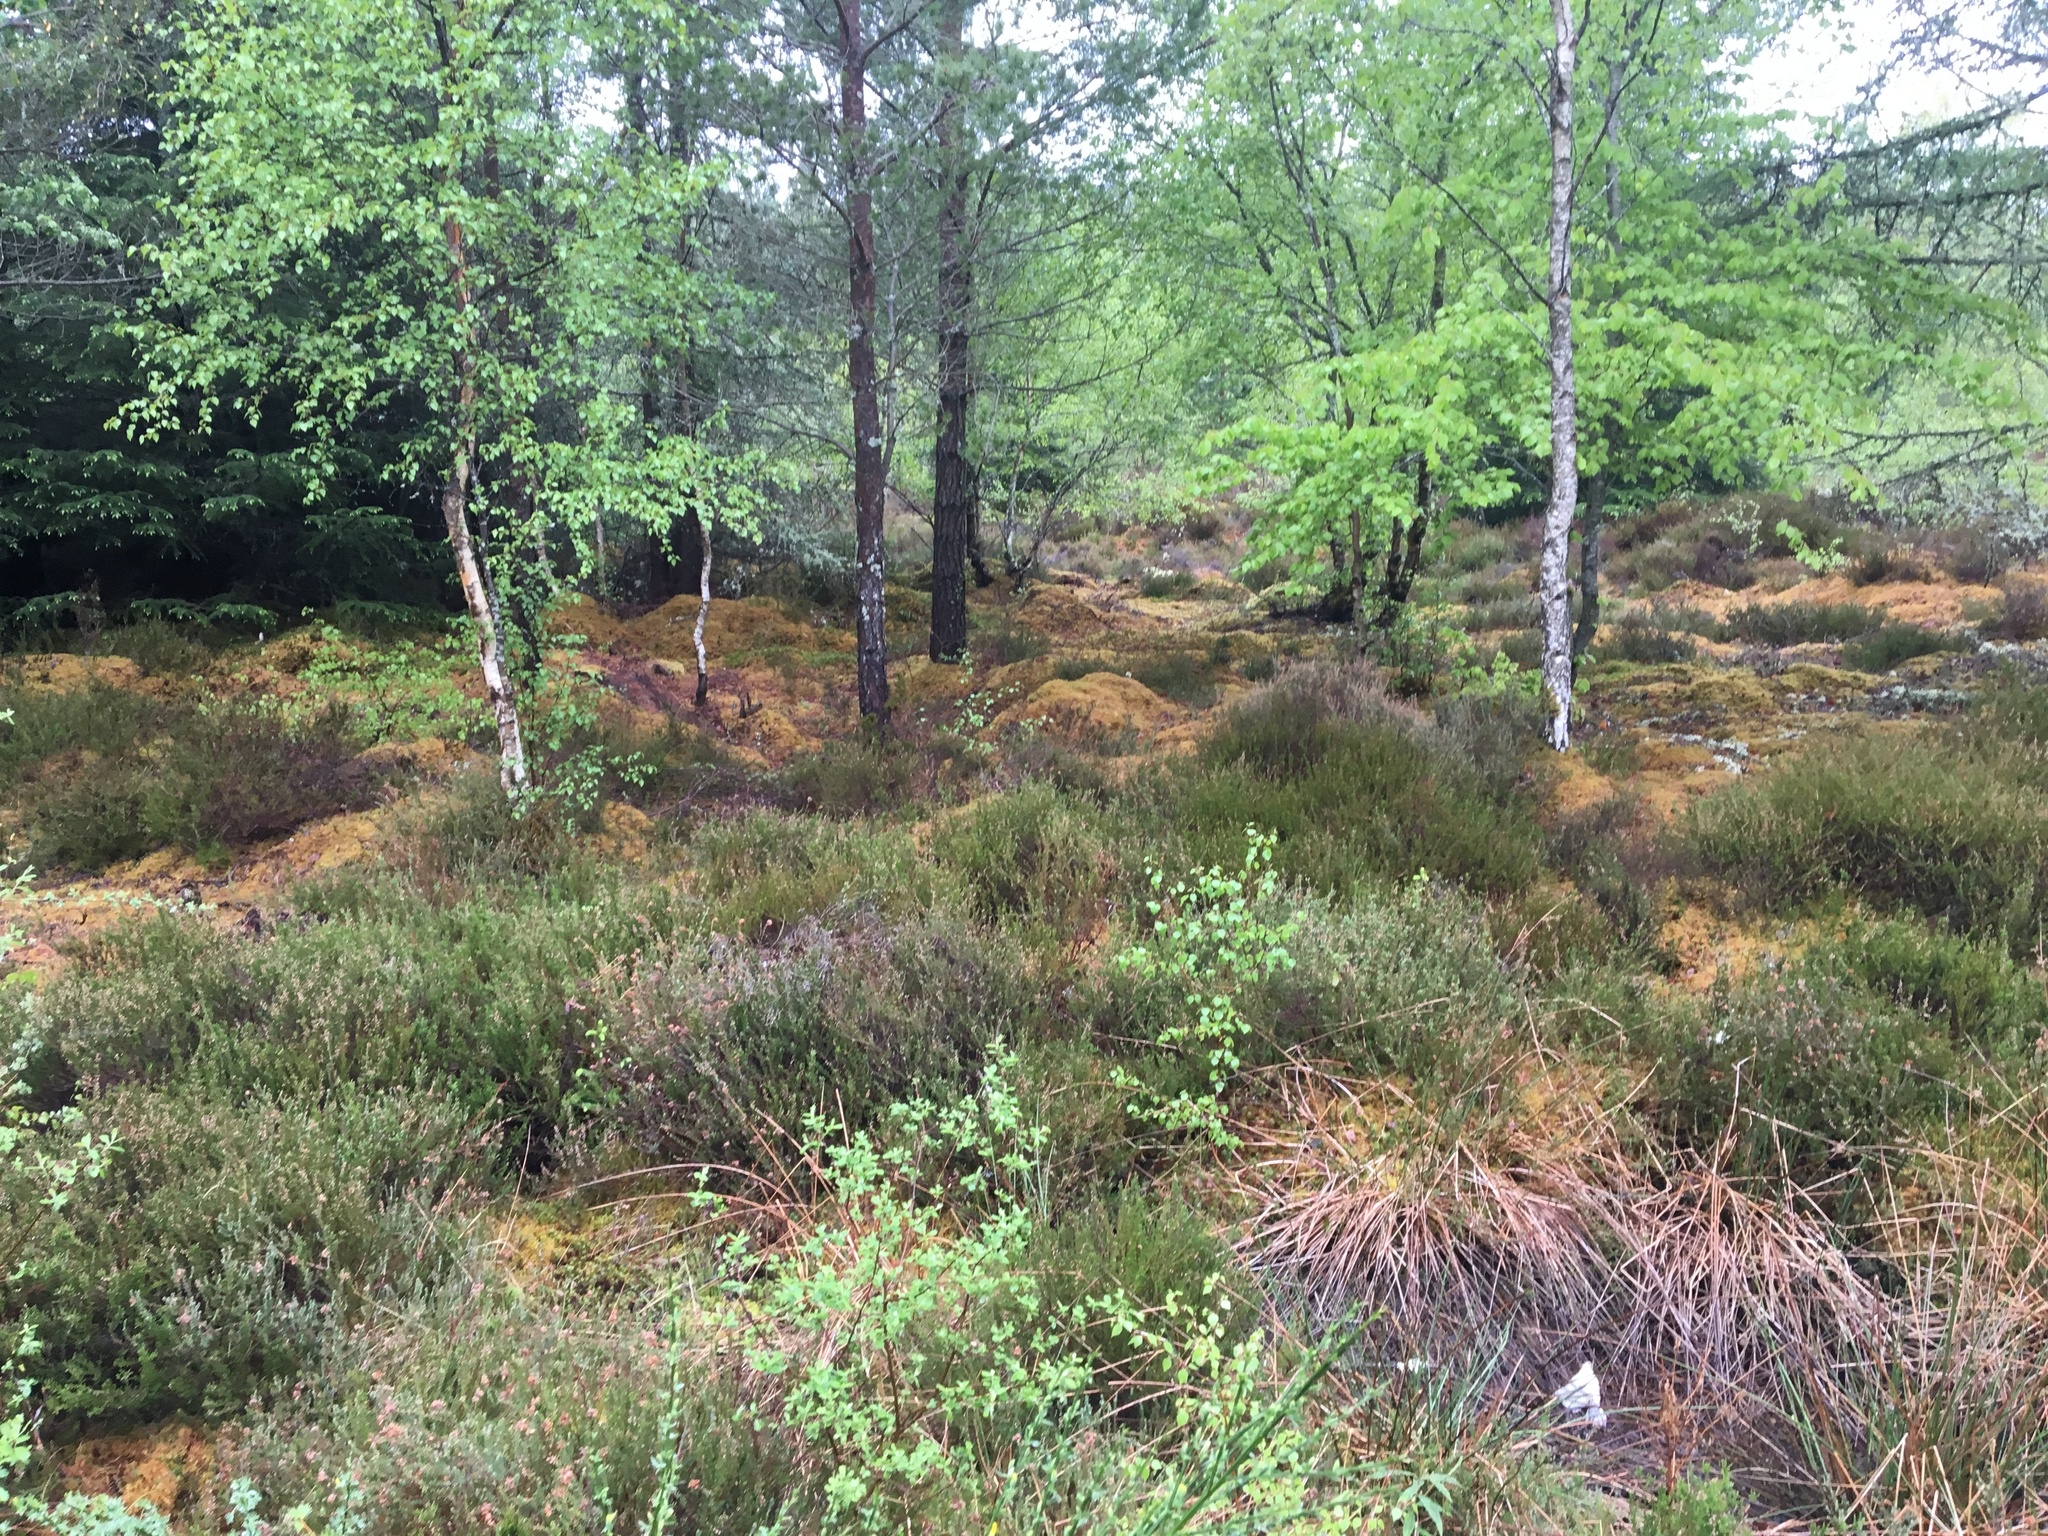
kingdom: Plantae
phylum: Tracheophyta
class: Magnoliopsida
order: Ericales
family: Ericaceae
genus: Calluna
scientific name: Calluna vulgaris
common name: Heather
